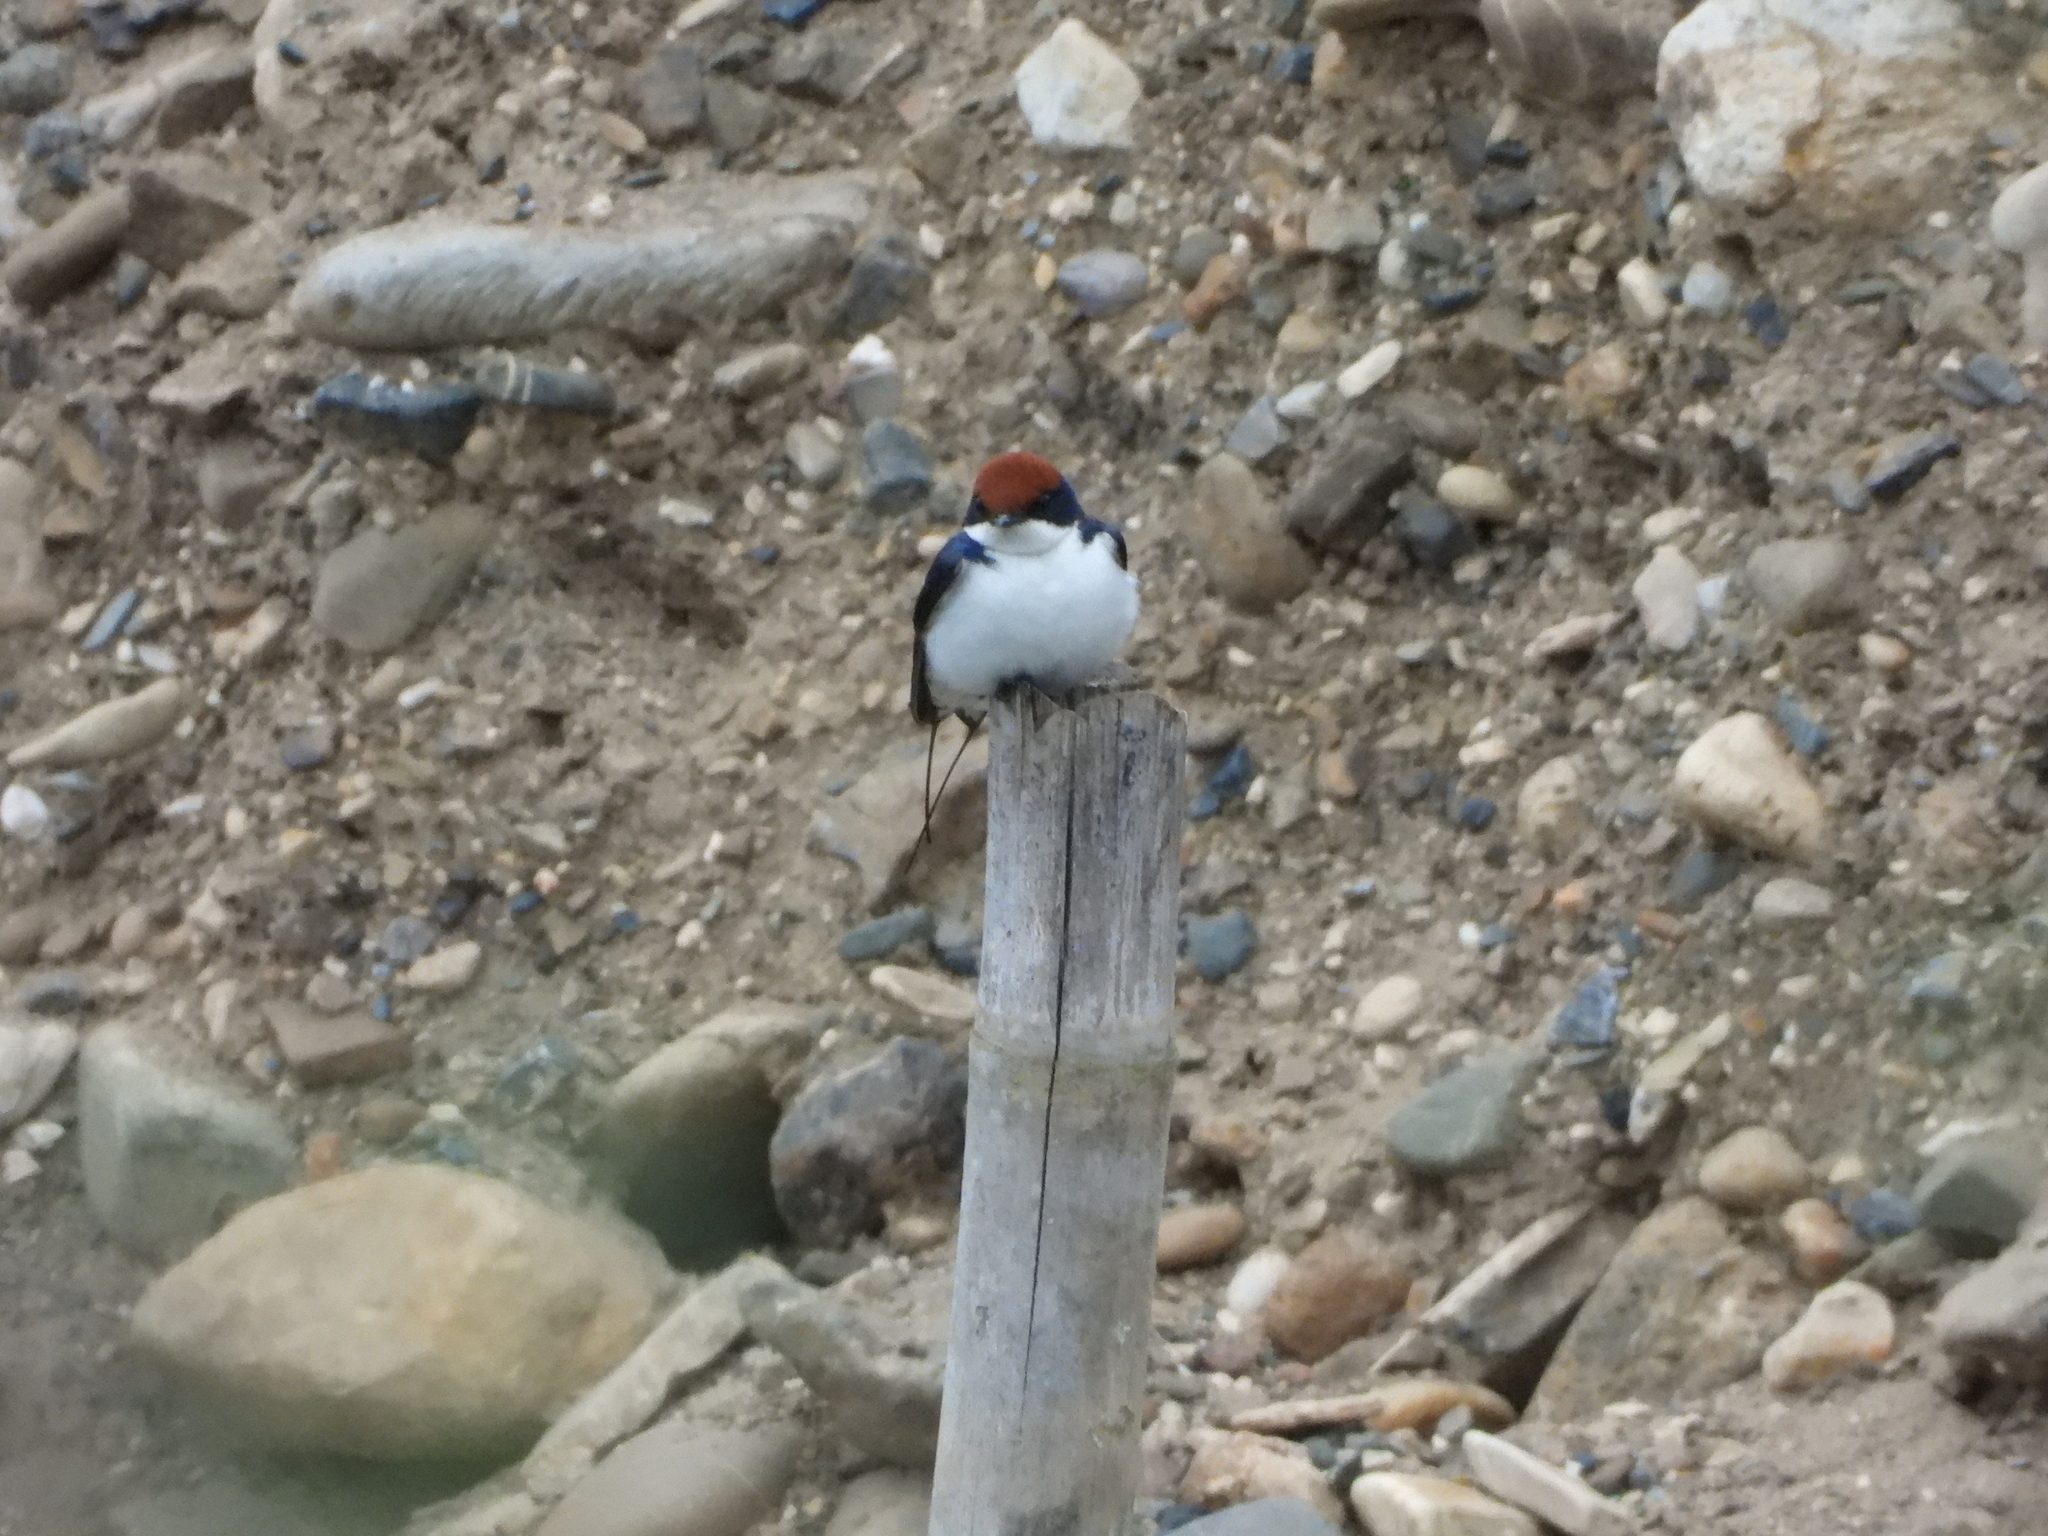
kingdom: Animalia
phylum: Chordata
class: Aves
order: Passeriformes
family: Hirundinidae
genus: Hirundo
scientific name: Hirundo smithii
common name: Wire-tailed swallow
